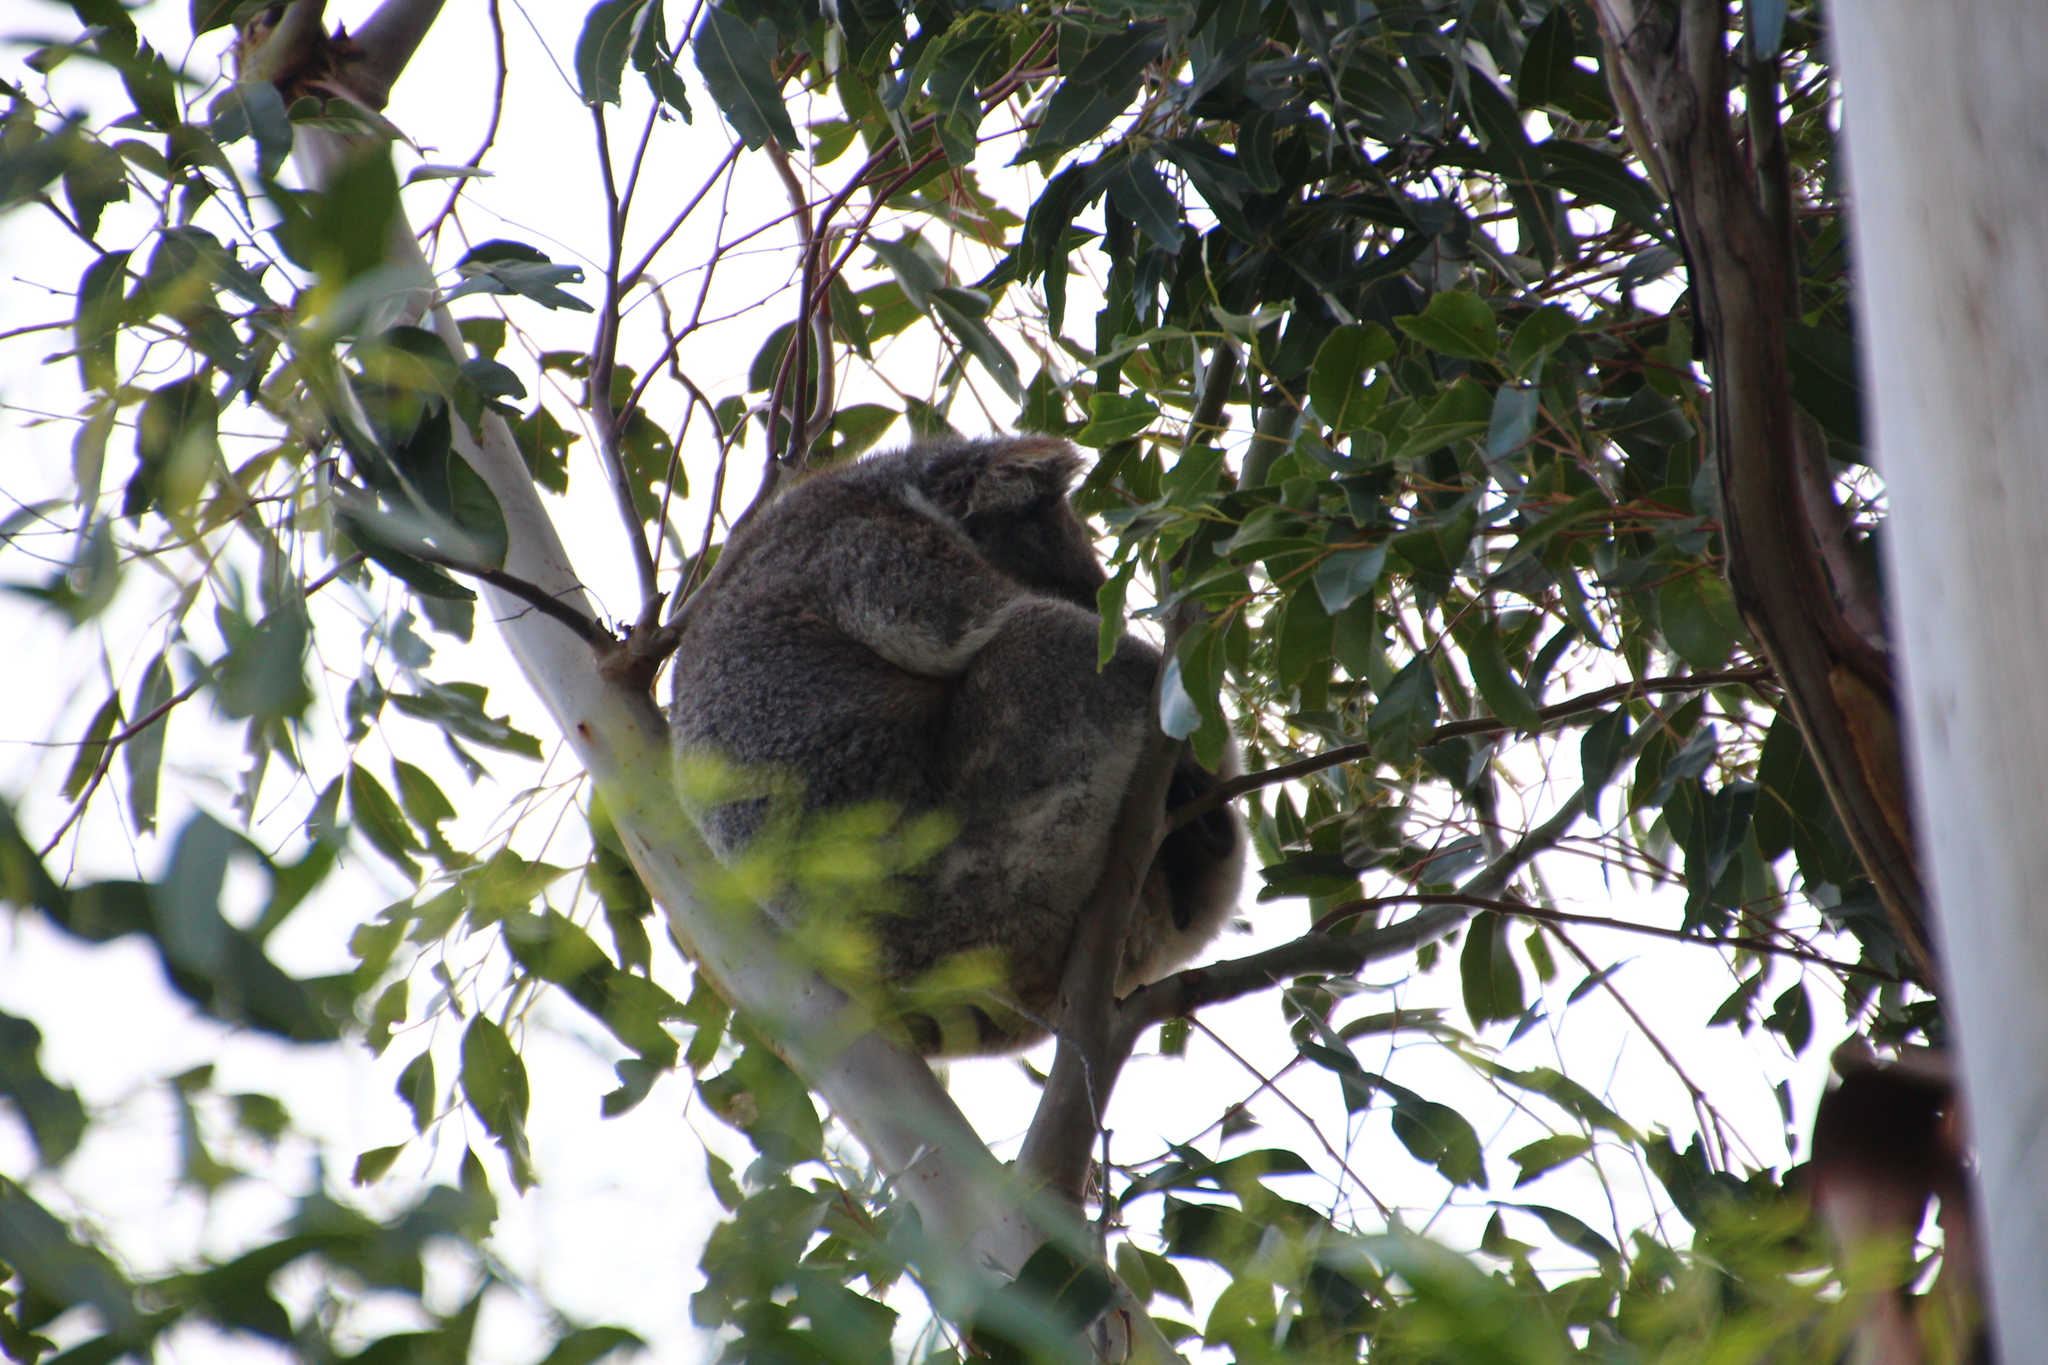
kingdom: Animalia
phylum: Chordata
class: Mammalia
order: Diprotodontia
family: Phascolarctidae
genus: Phascolarctos
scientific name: Phascolarctos cinereus
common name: Koala
